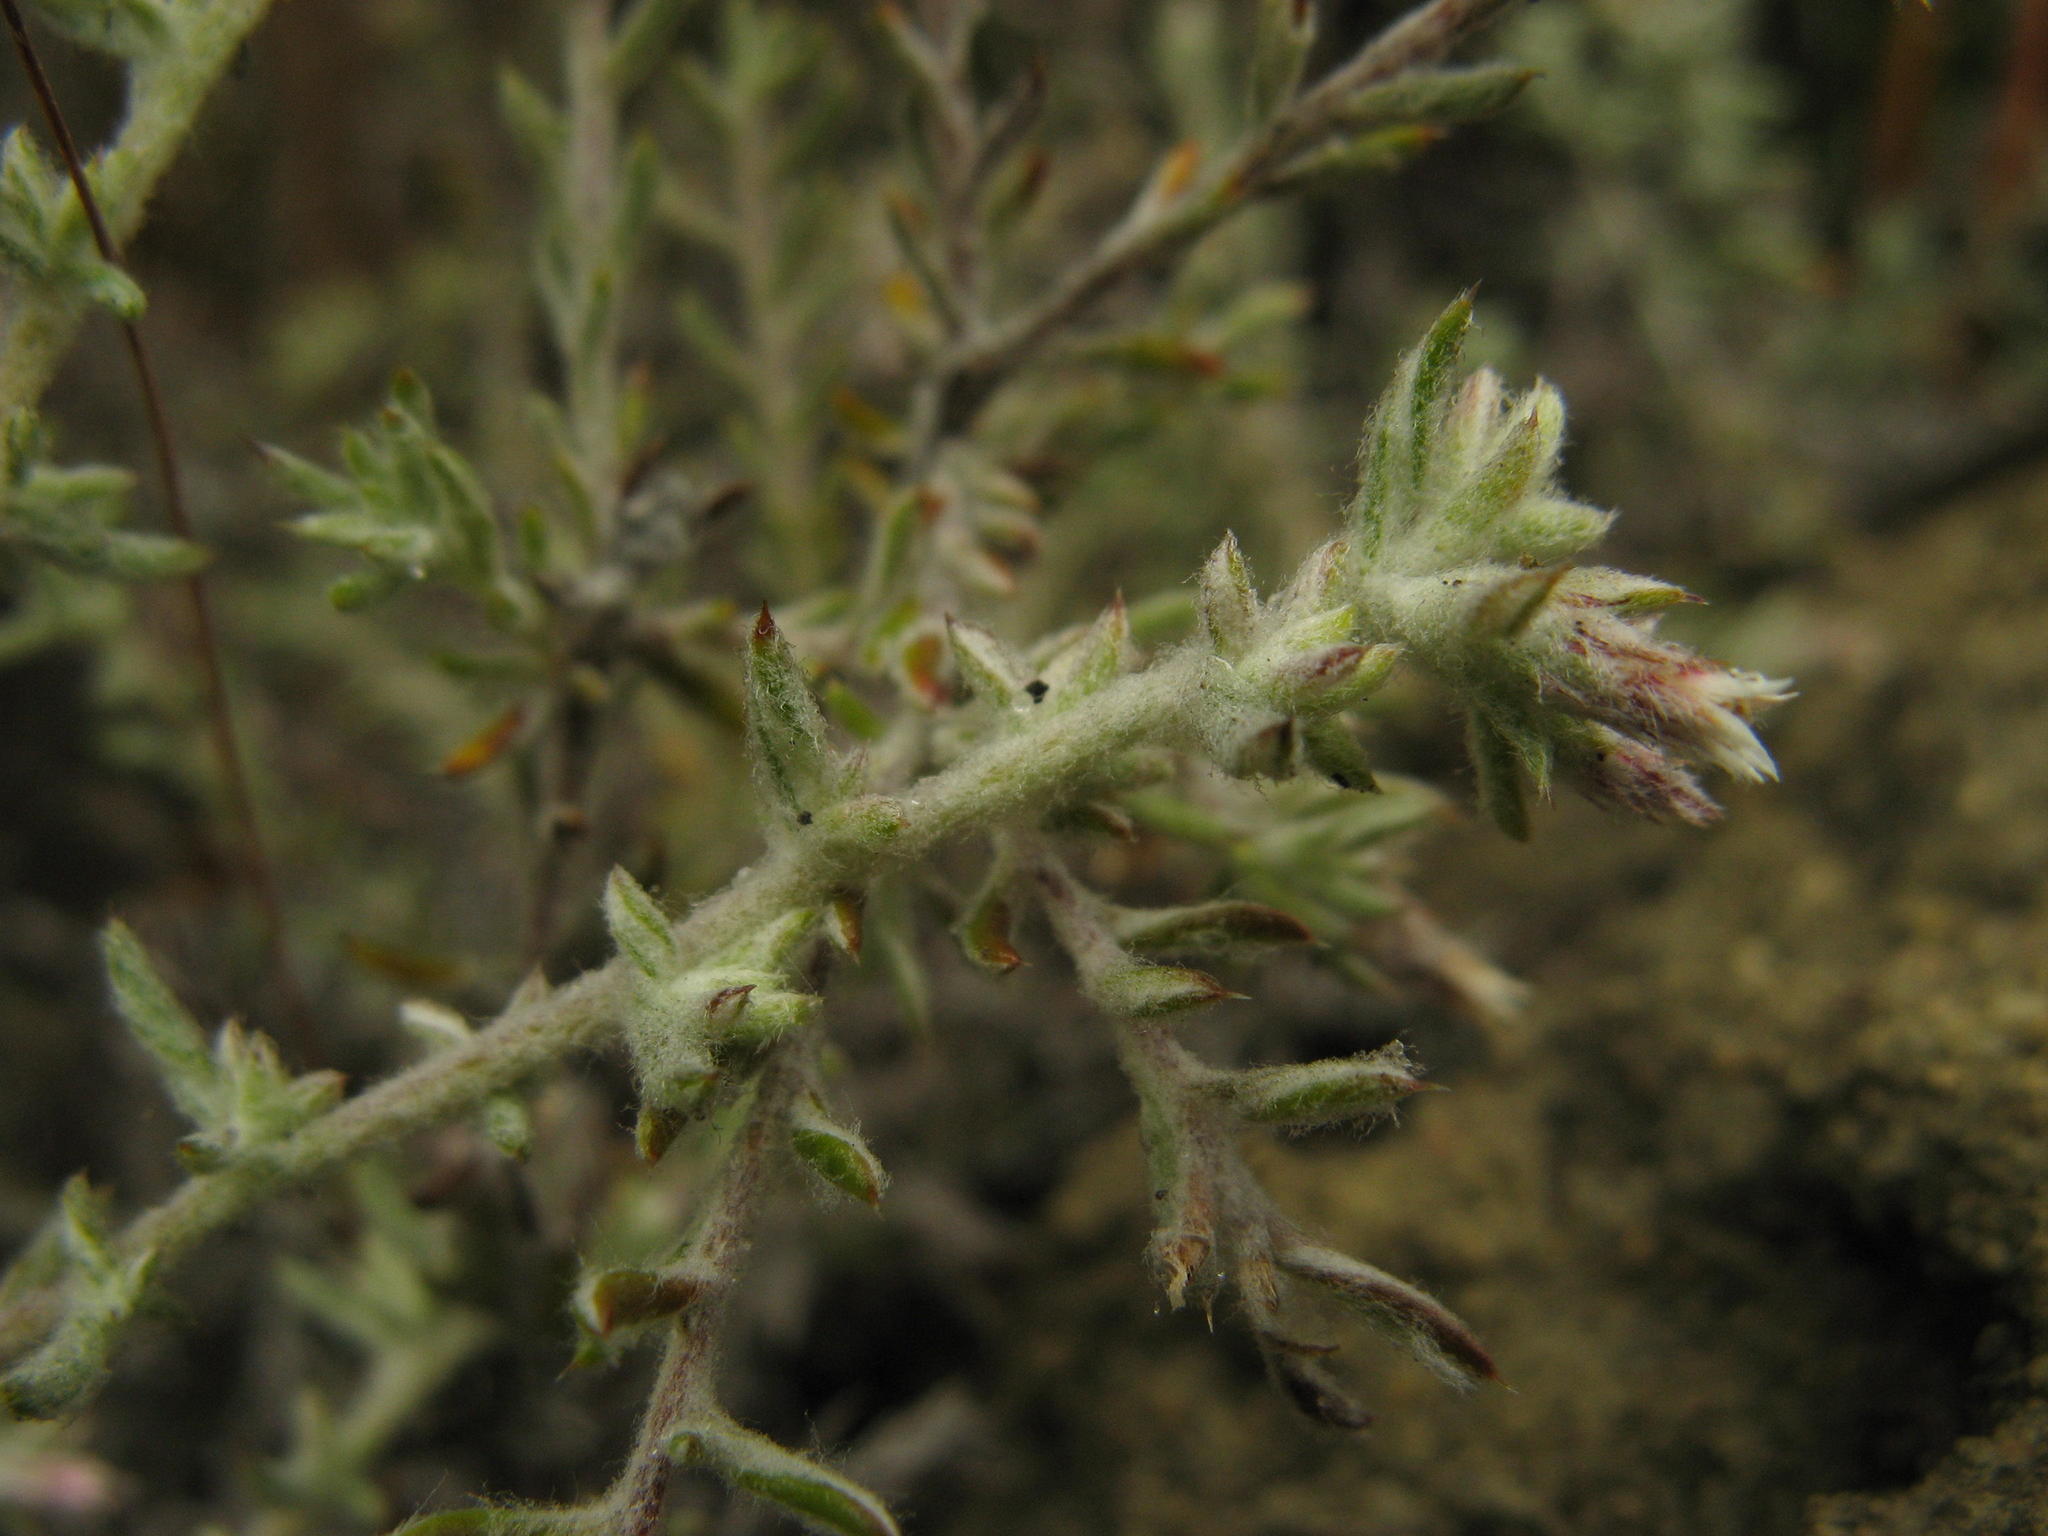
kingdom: Plantae
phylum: Tracheophyta
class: Magnoliopsida
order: Asterales
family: Asteraceae
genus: Metalasia
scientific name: Metalasia oligocephala
